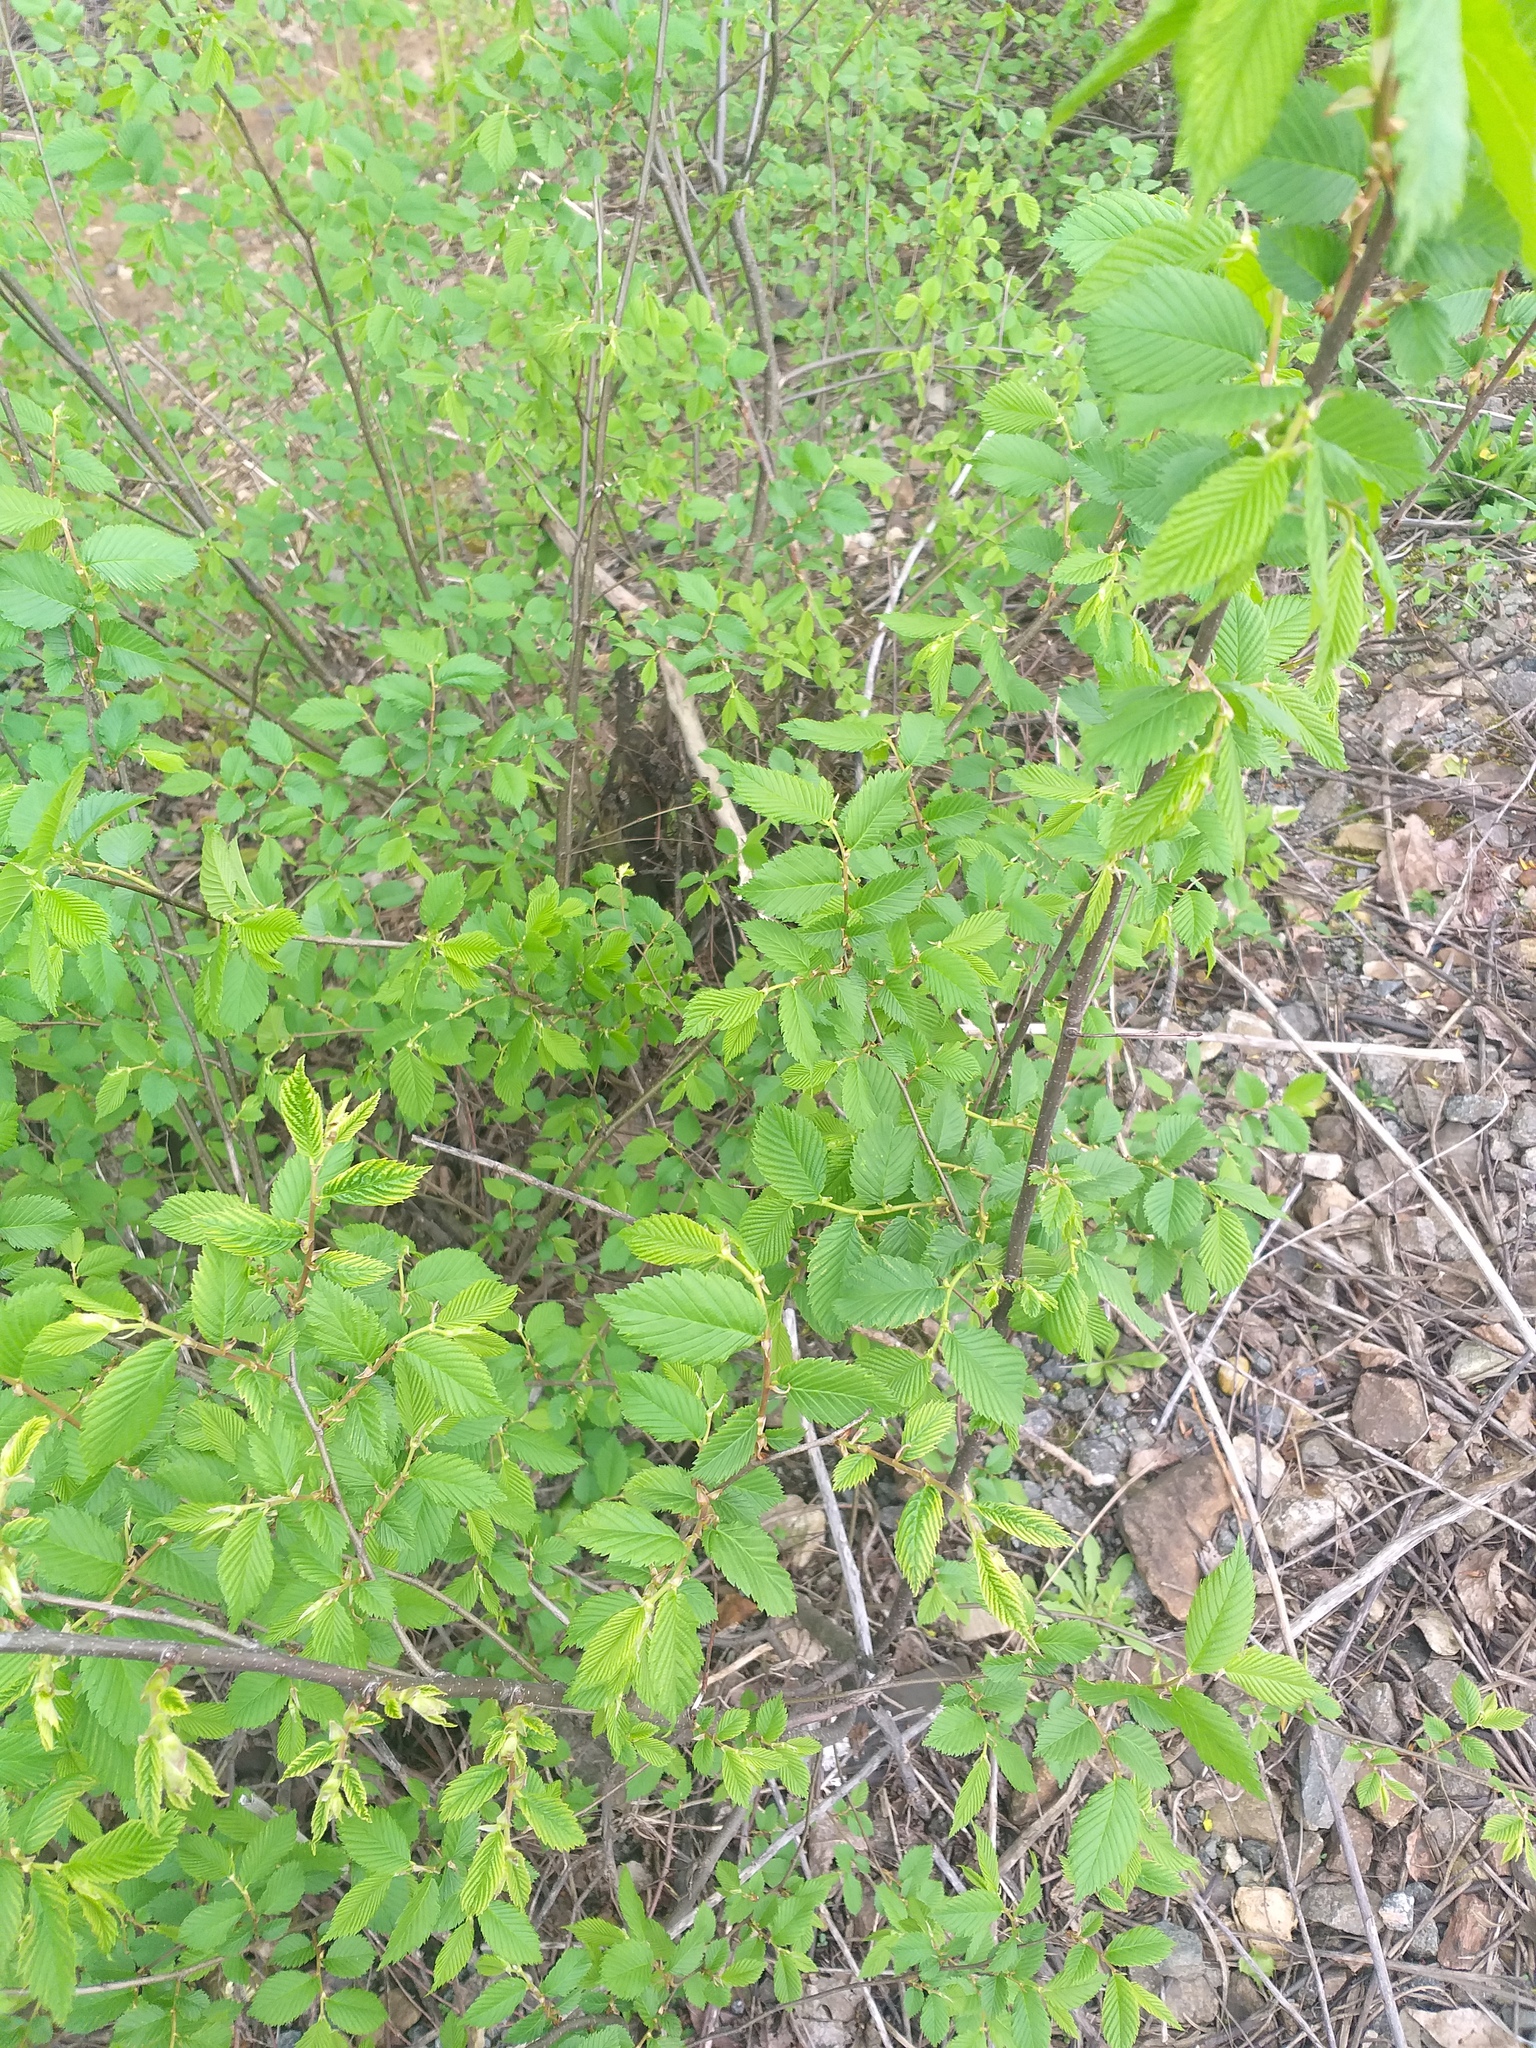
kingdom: Plantae
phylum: Tracheophyta
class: Magnoliopsida
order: Rosales
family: Ulmaceae
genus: Ulmus
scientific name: Ulmus laevis
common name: European white-elm
